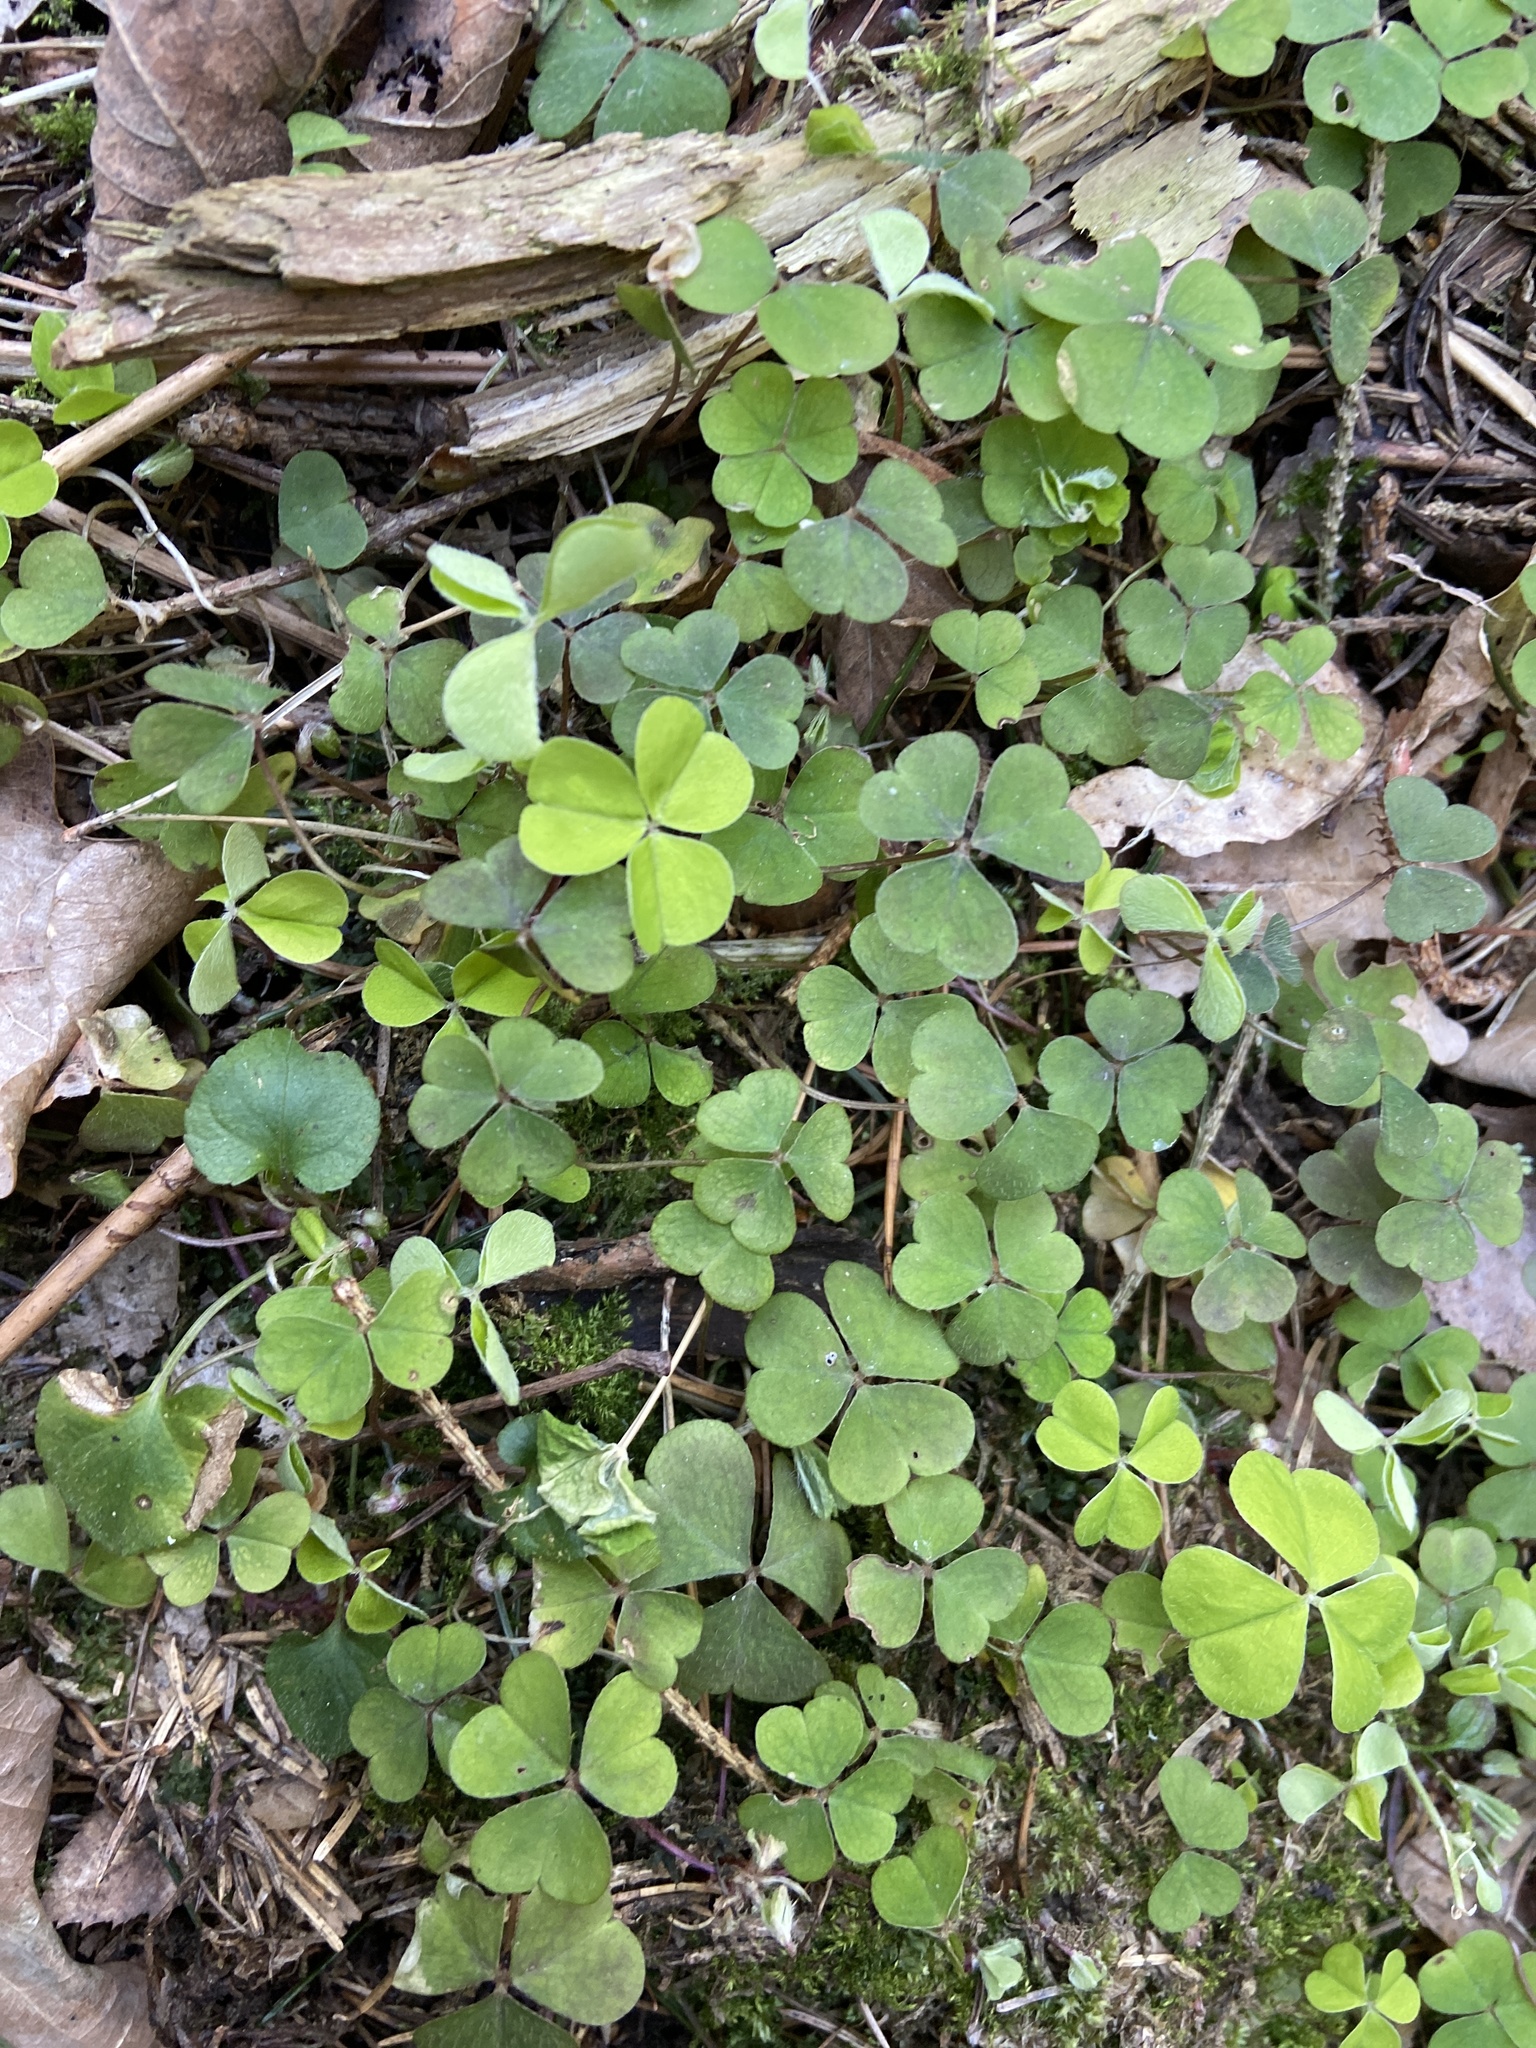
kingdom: Plantae
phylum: Tracheophyta
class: Magnoliopsida
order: Oxalidales
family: Oxalidaceae
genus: Oxalis
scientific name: Oxalis acetosella
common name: Wood-sorrel
